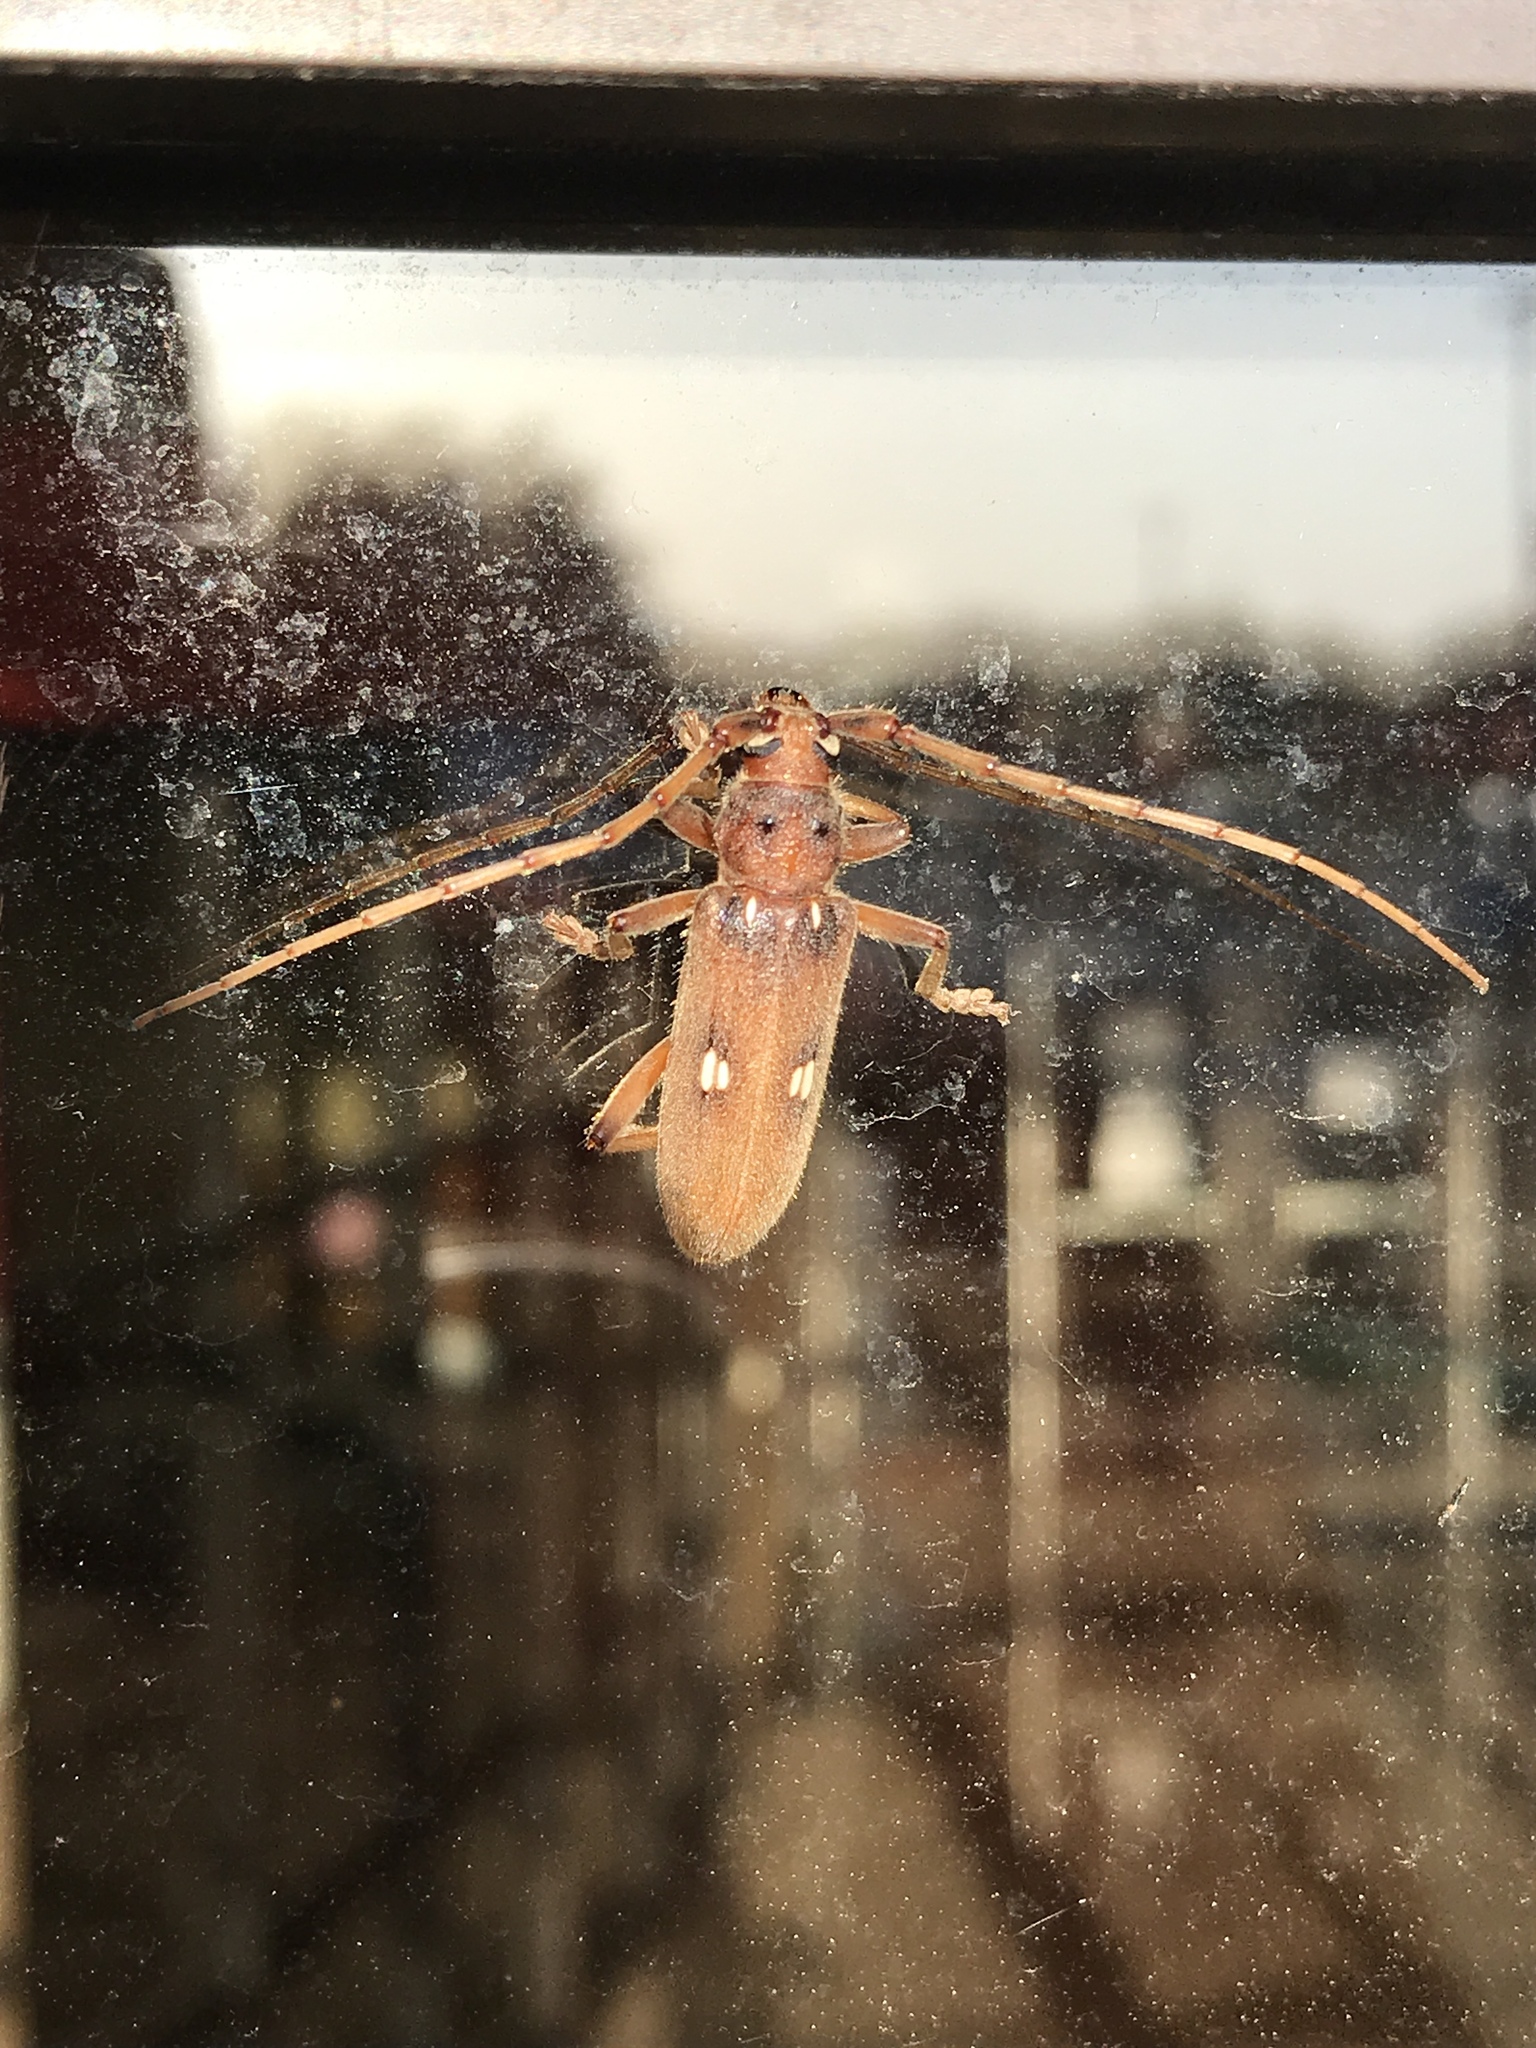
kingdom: Animalia
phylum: Arthropoda
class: Insecta
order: Coleoptera
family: Cerambycidae
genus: Eburia
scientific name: Eburia haldemani
